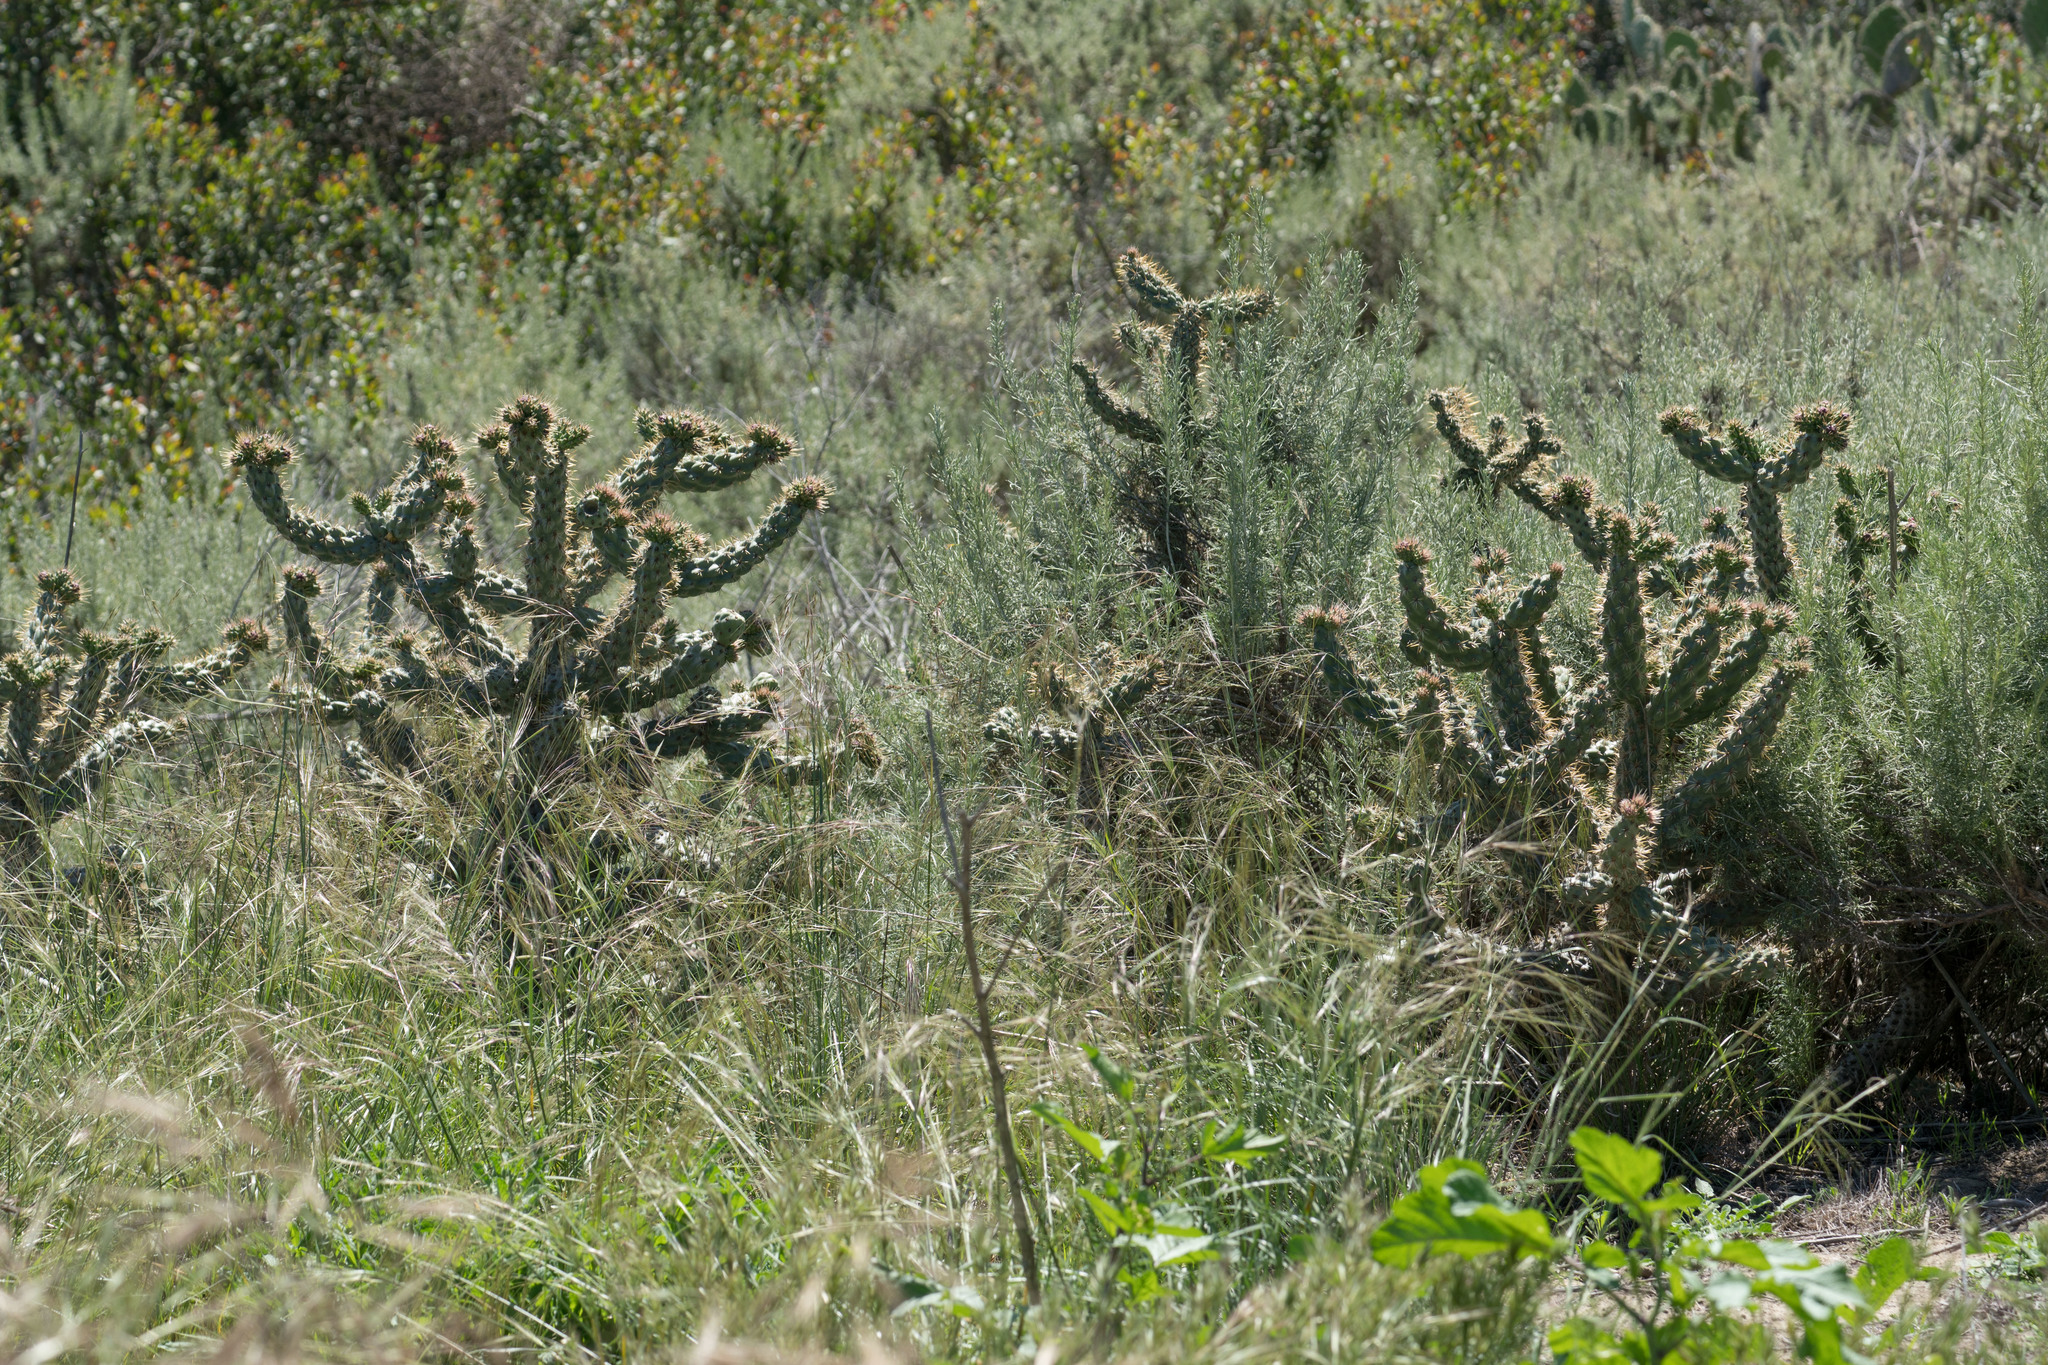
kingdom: Plantae
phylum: Tracheophyta
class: Magnoliopsida
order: Caryophyllales
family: Cactaceae
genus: Cylindropuntia
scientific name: Cylindropuntia prolifera
